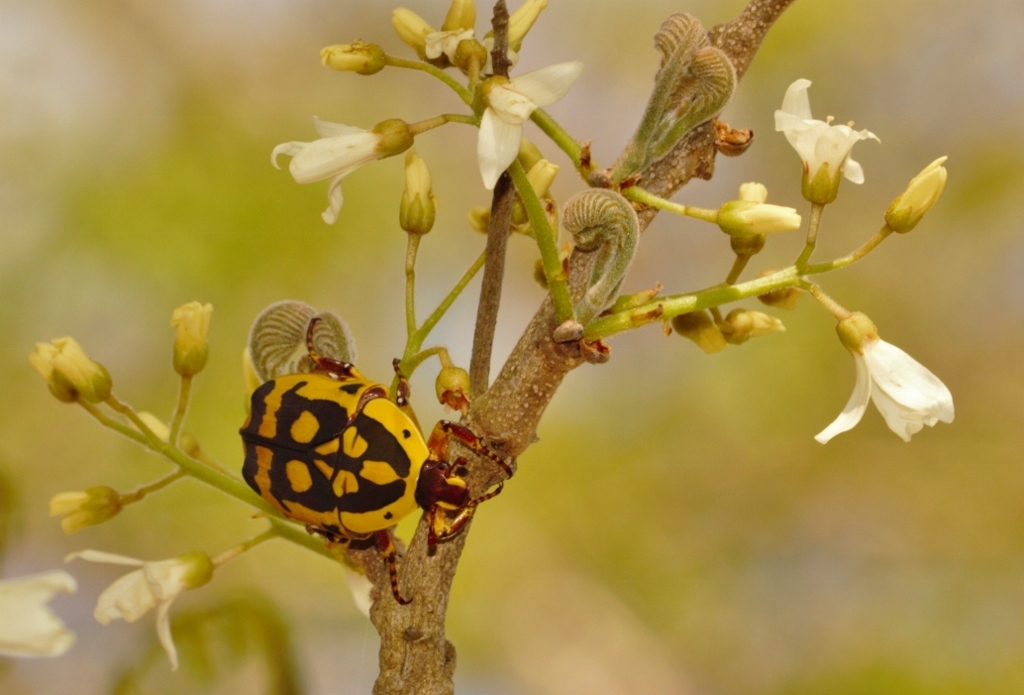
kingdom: Animalia
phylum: Arthropoda
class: Insecta
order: Coleoptera
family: Scarabaeidae
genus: Pachnoda
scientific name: Pachnoda sinuata
